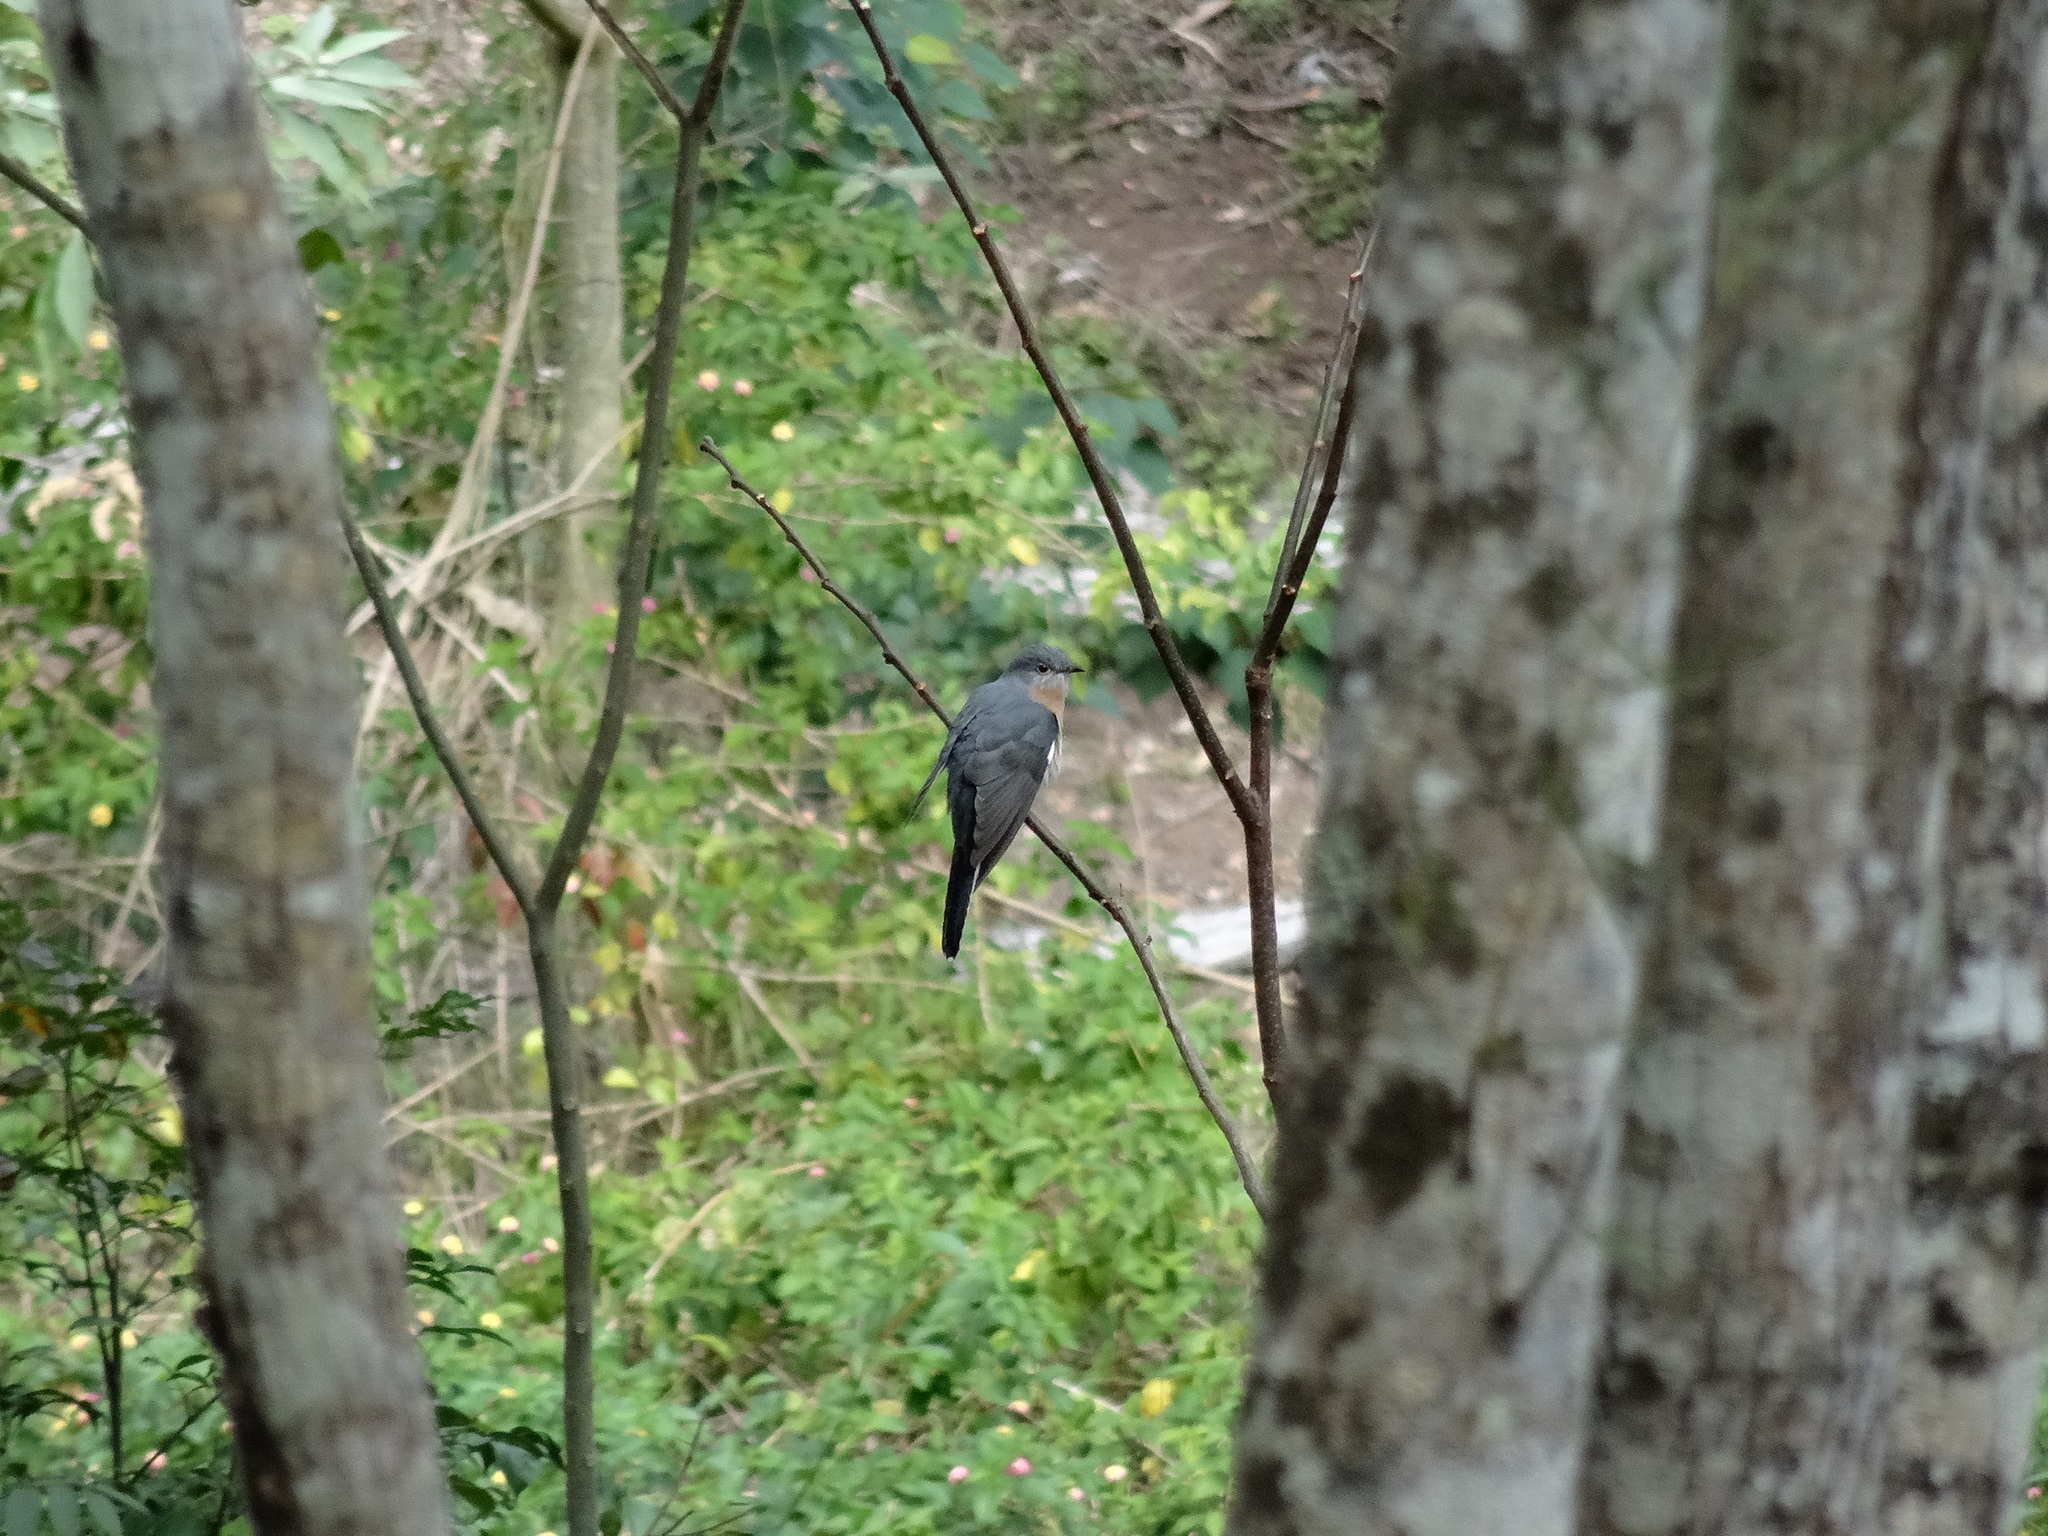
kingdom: Animalia
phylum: Chordata
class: Aves
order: Cuculiformes
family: Cuculidae
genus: Cacomantis
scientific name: Cacomantis flabelliformis
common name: Fan-tailed cuckoo
